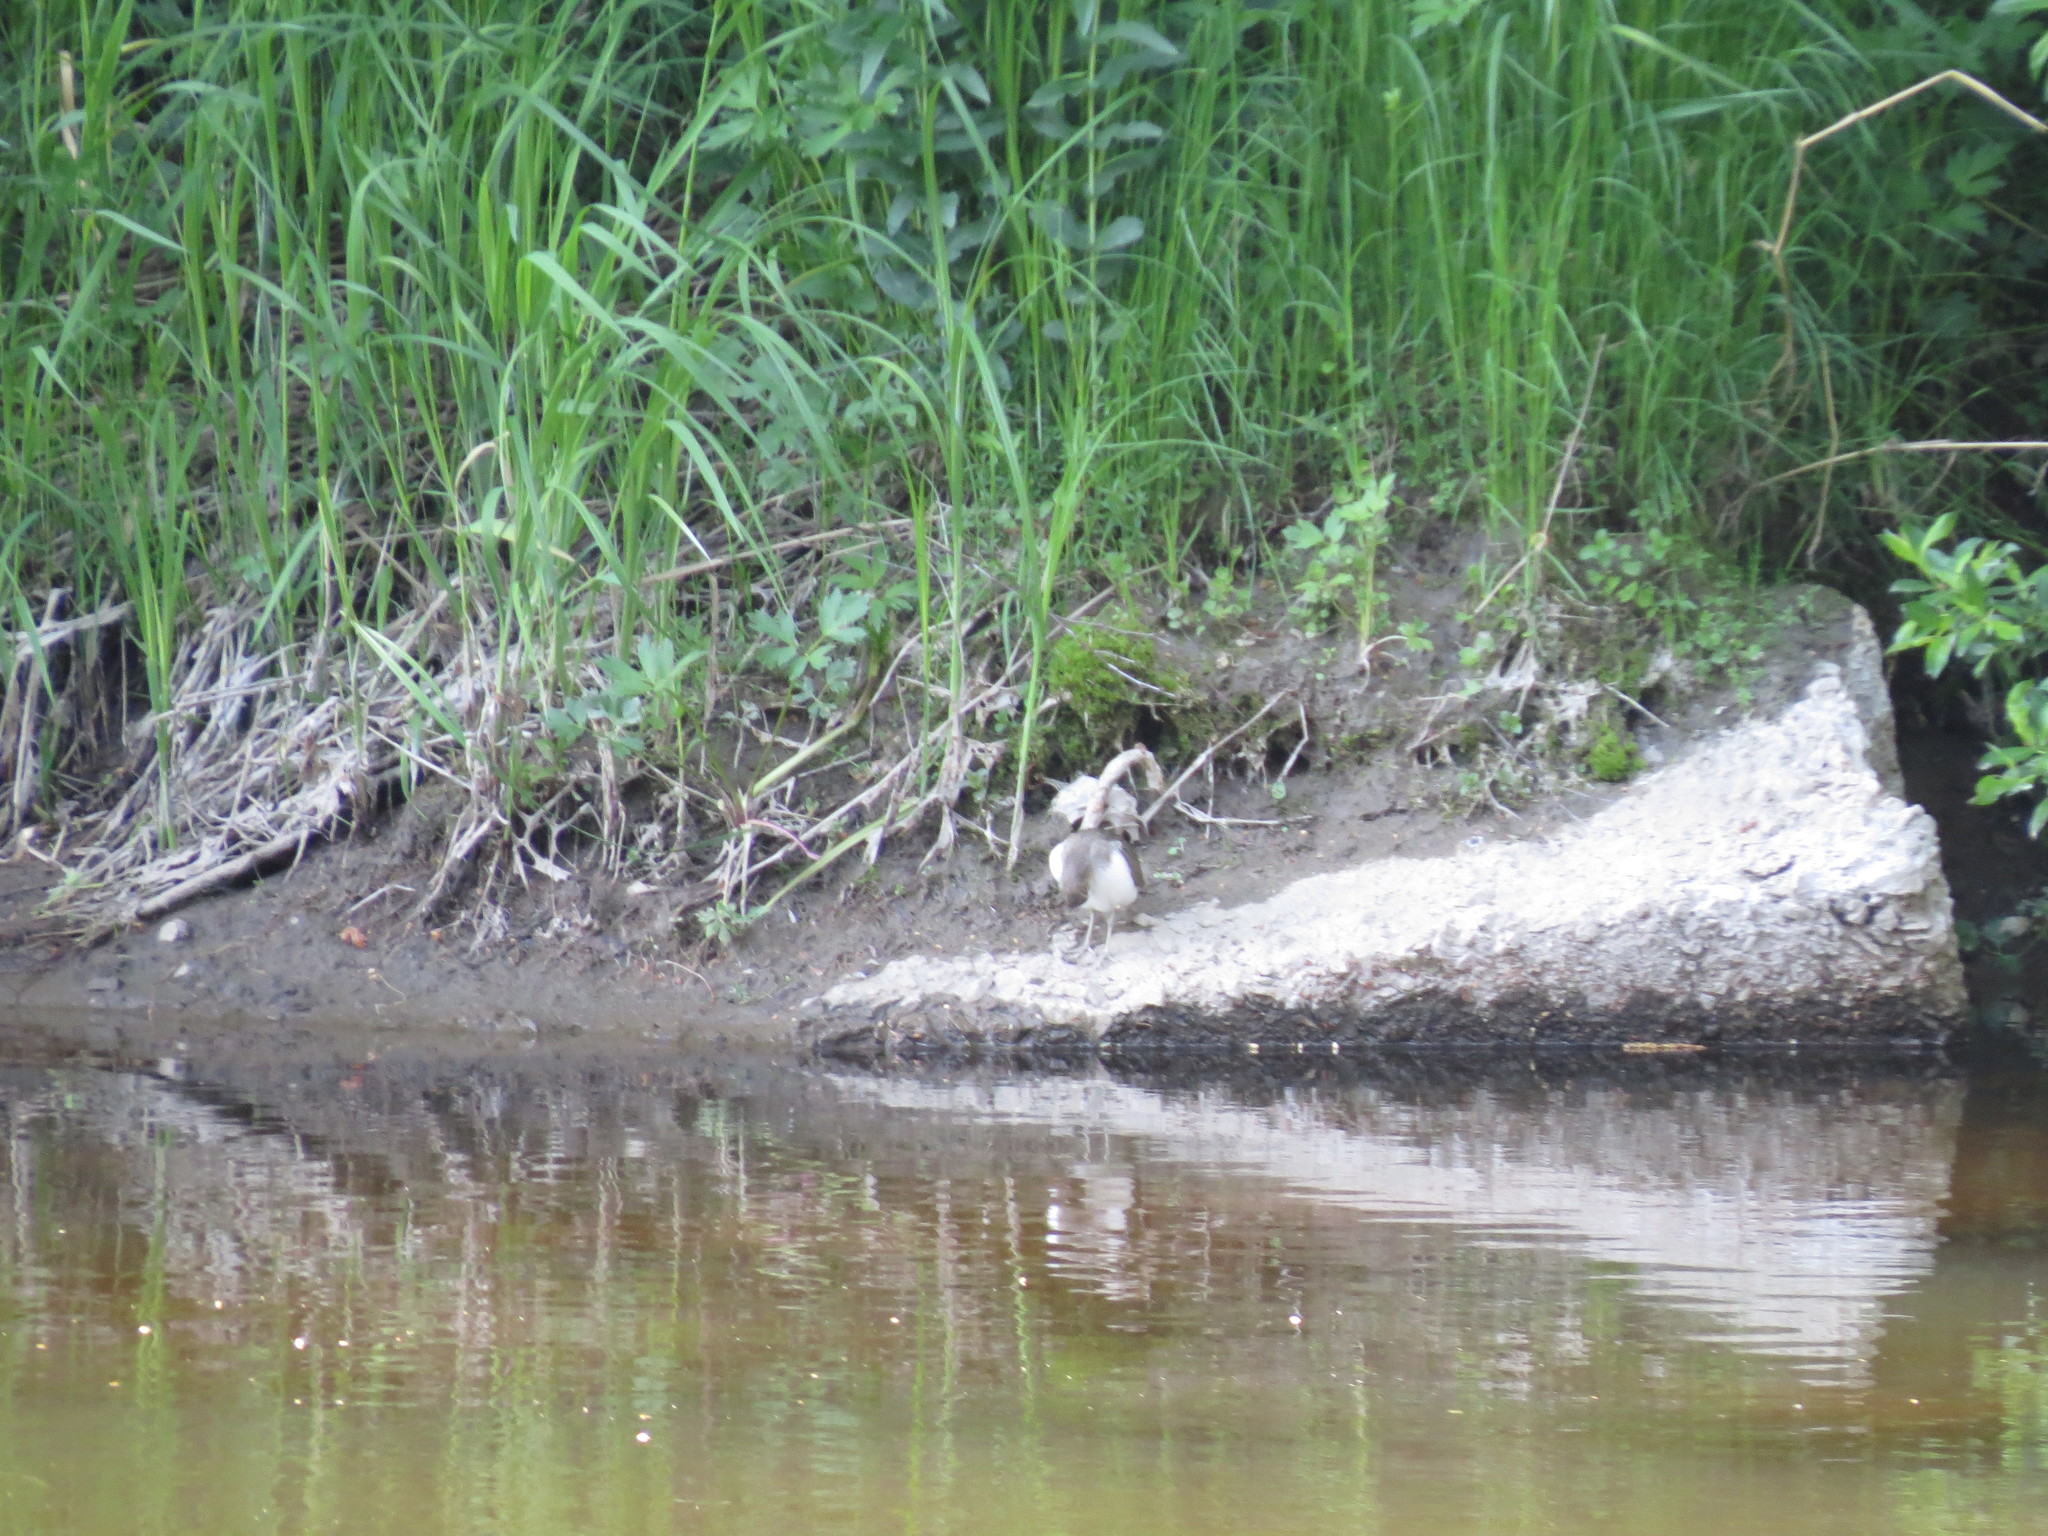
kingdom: Animalia
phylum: Chordata
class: Aves
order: Charadriiformes
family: Scolopacidae
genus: Actitis
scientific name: Actitis hypoleucos
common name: Common sandpiper
